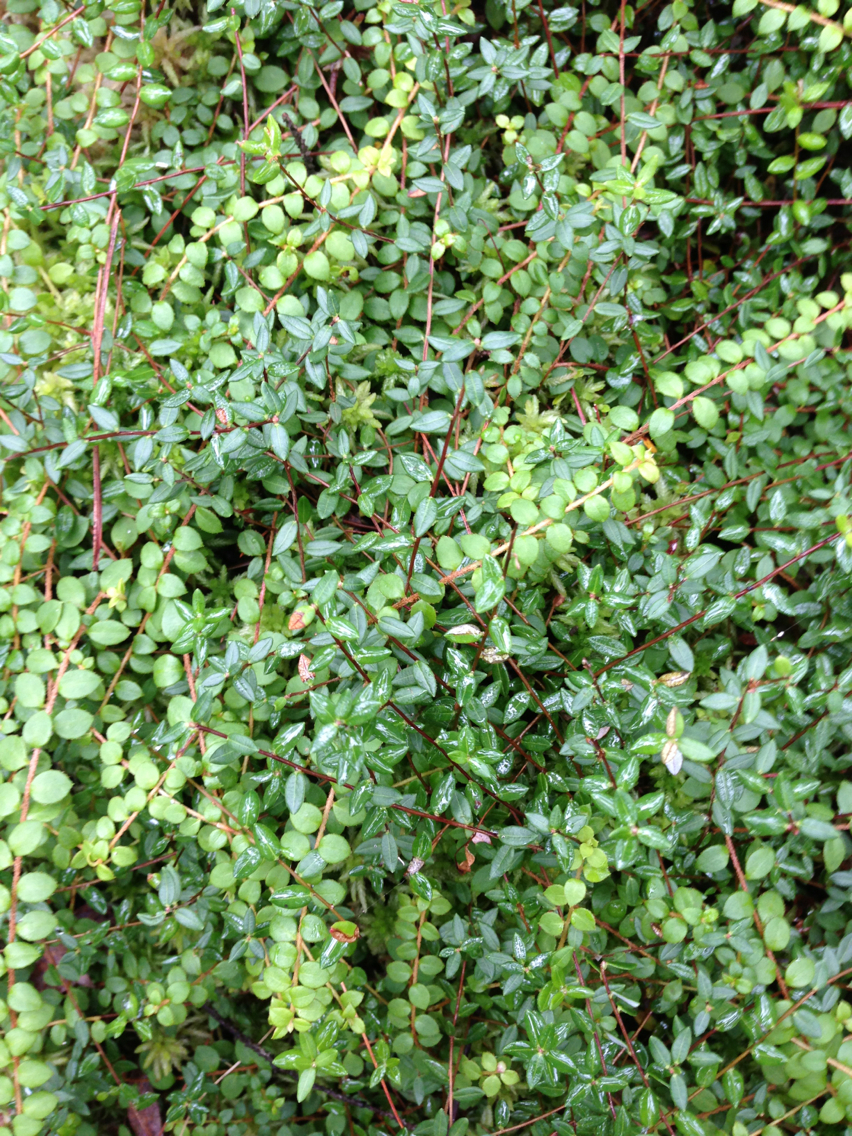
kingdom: Plantae
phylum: Tracheophyta
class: Magnoliopsida
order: Ericales
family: Ericaceae
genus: Gaultheria
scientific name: Gaultheria hispidula
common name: Cancer wintergreen
